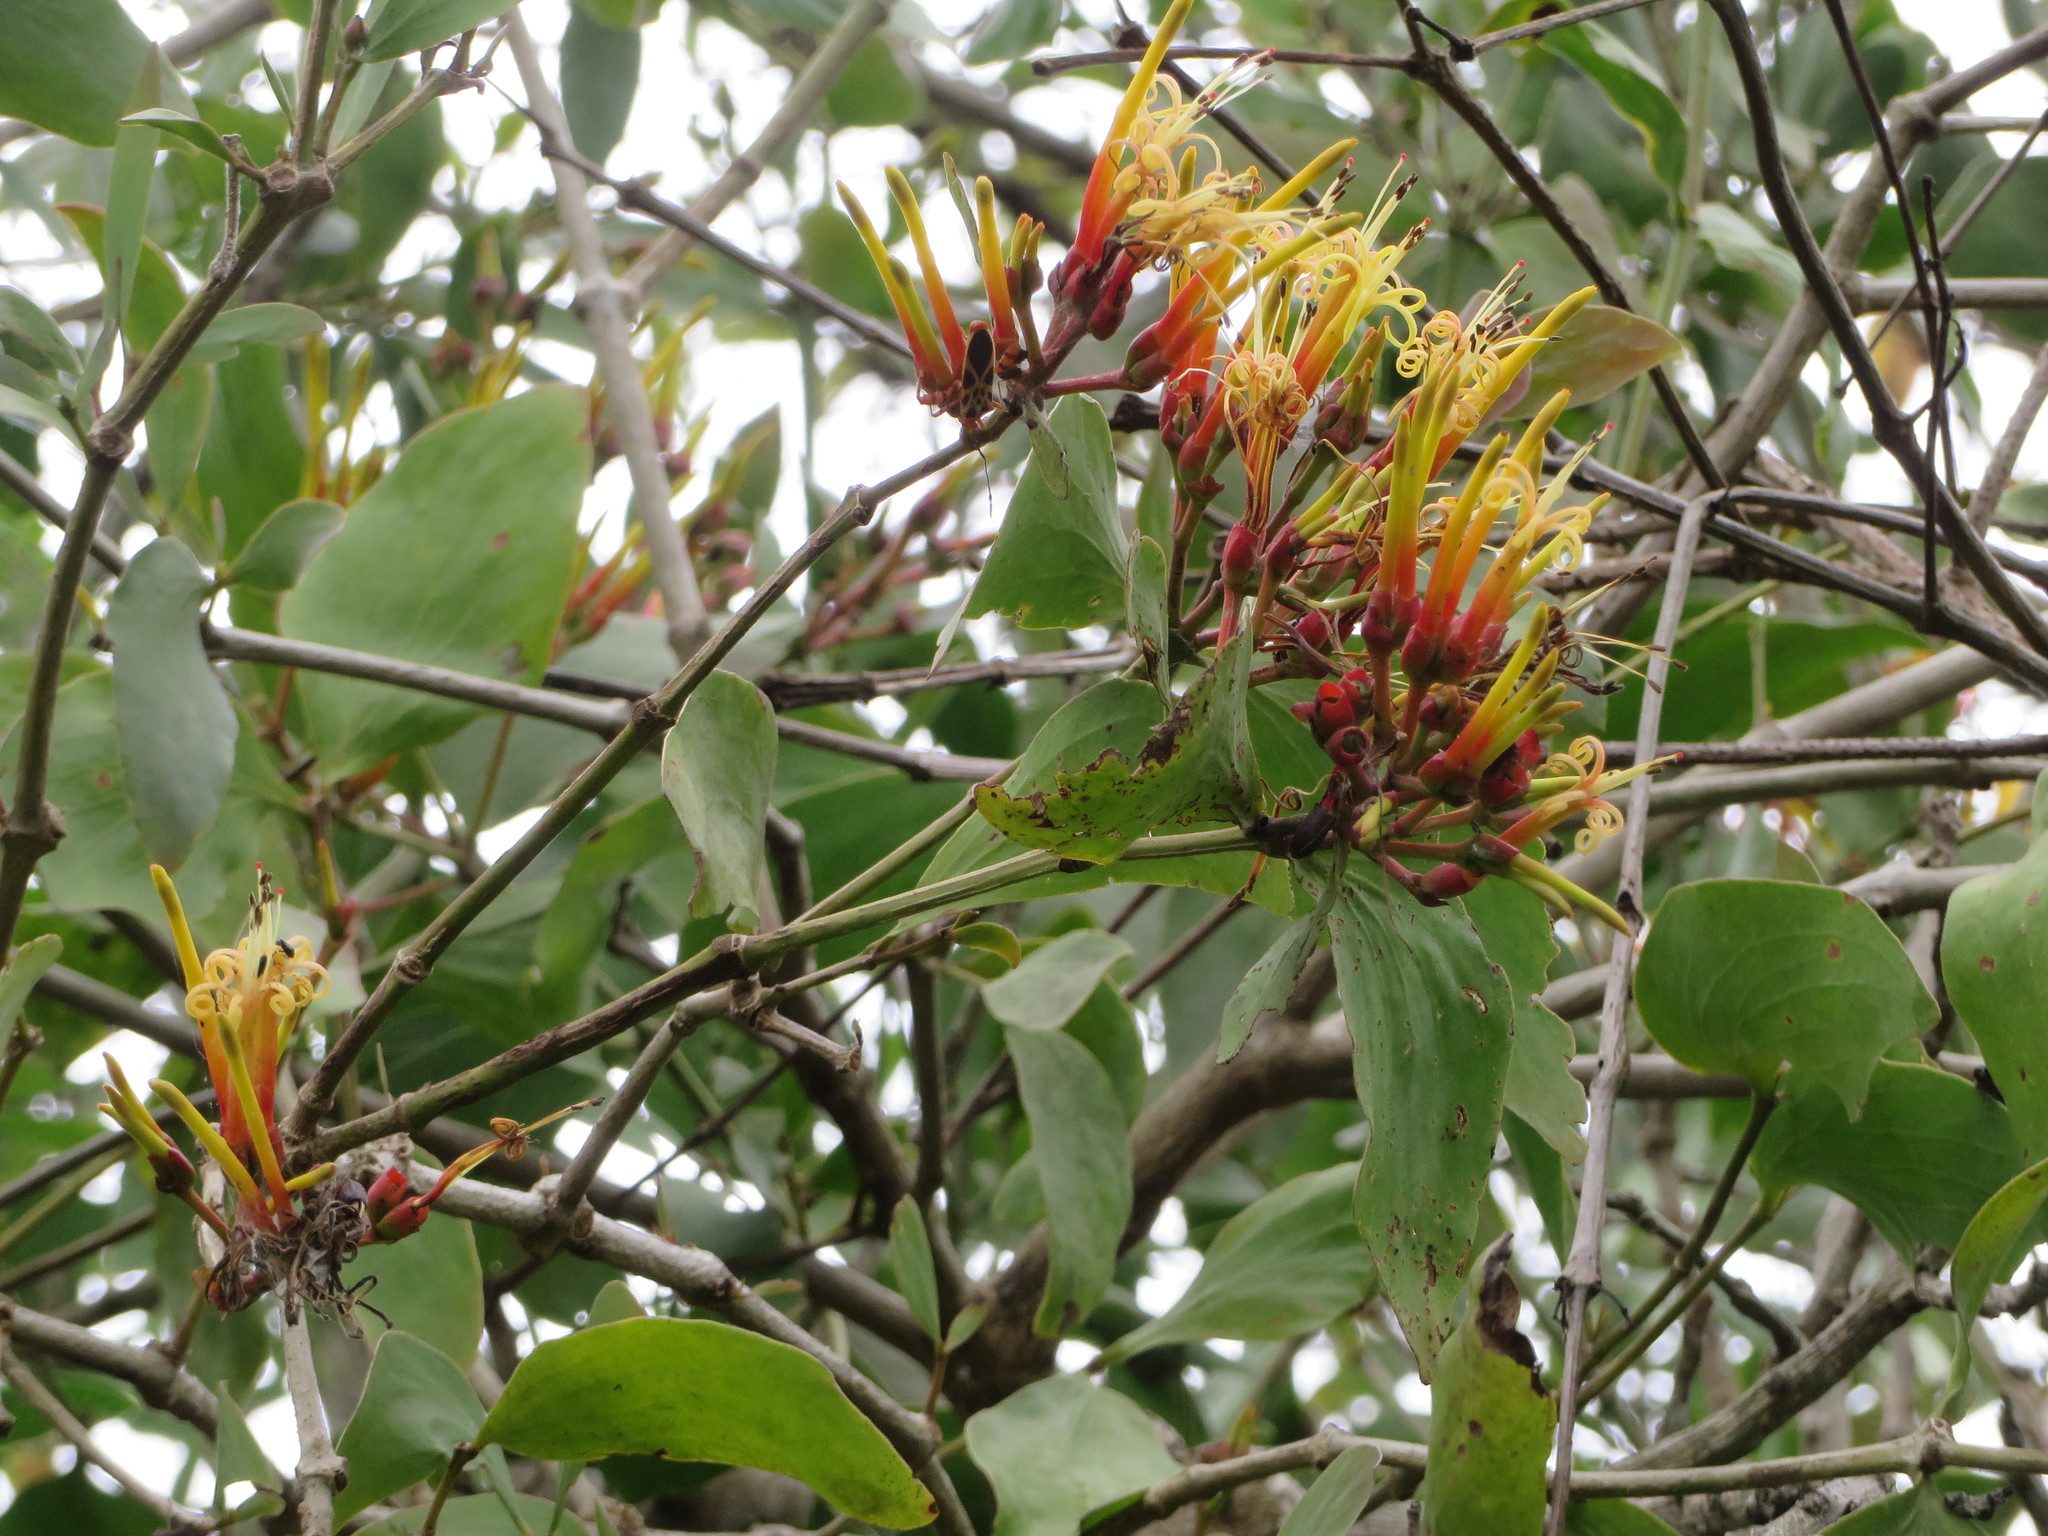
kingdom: Plantae
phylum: Tracheophyta
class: Magnoliopsida
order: Santalales
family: Loranthaceae
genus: Psittacanthus
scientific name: Psittacanthus cucullaris
